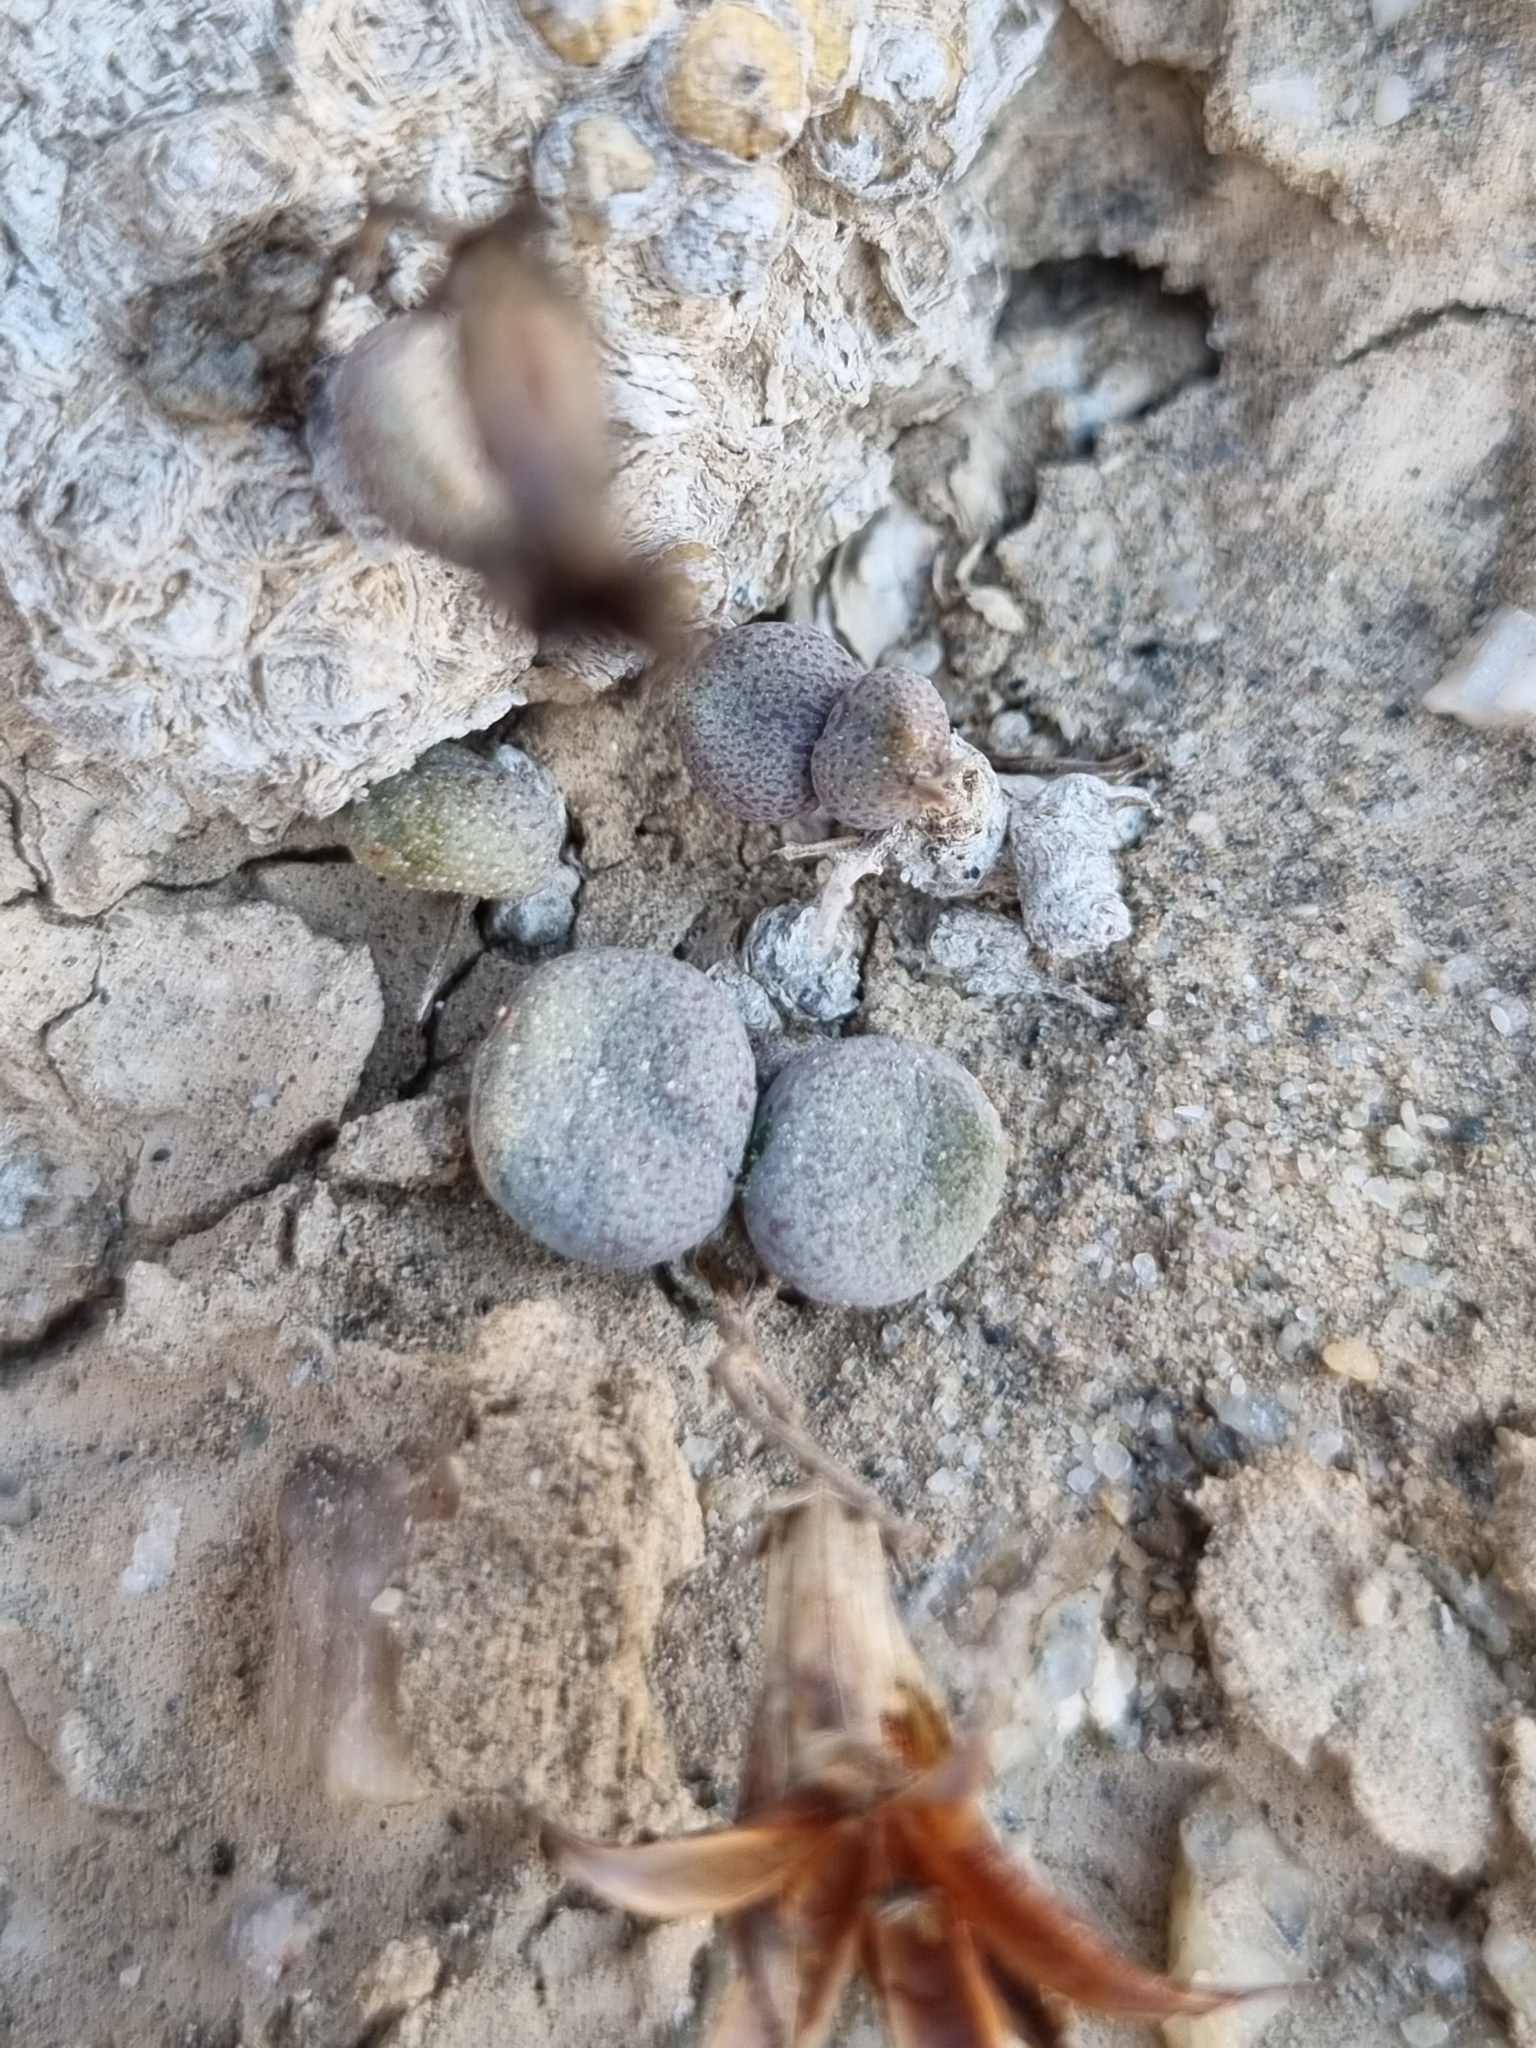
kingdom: Plantae
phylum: Tracheophyta
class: Magnoliopsida
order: Saxifragales
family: Crassulaceae
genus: Tylecodon
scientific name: Tylecodon schaeferianus
